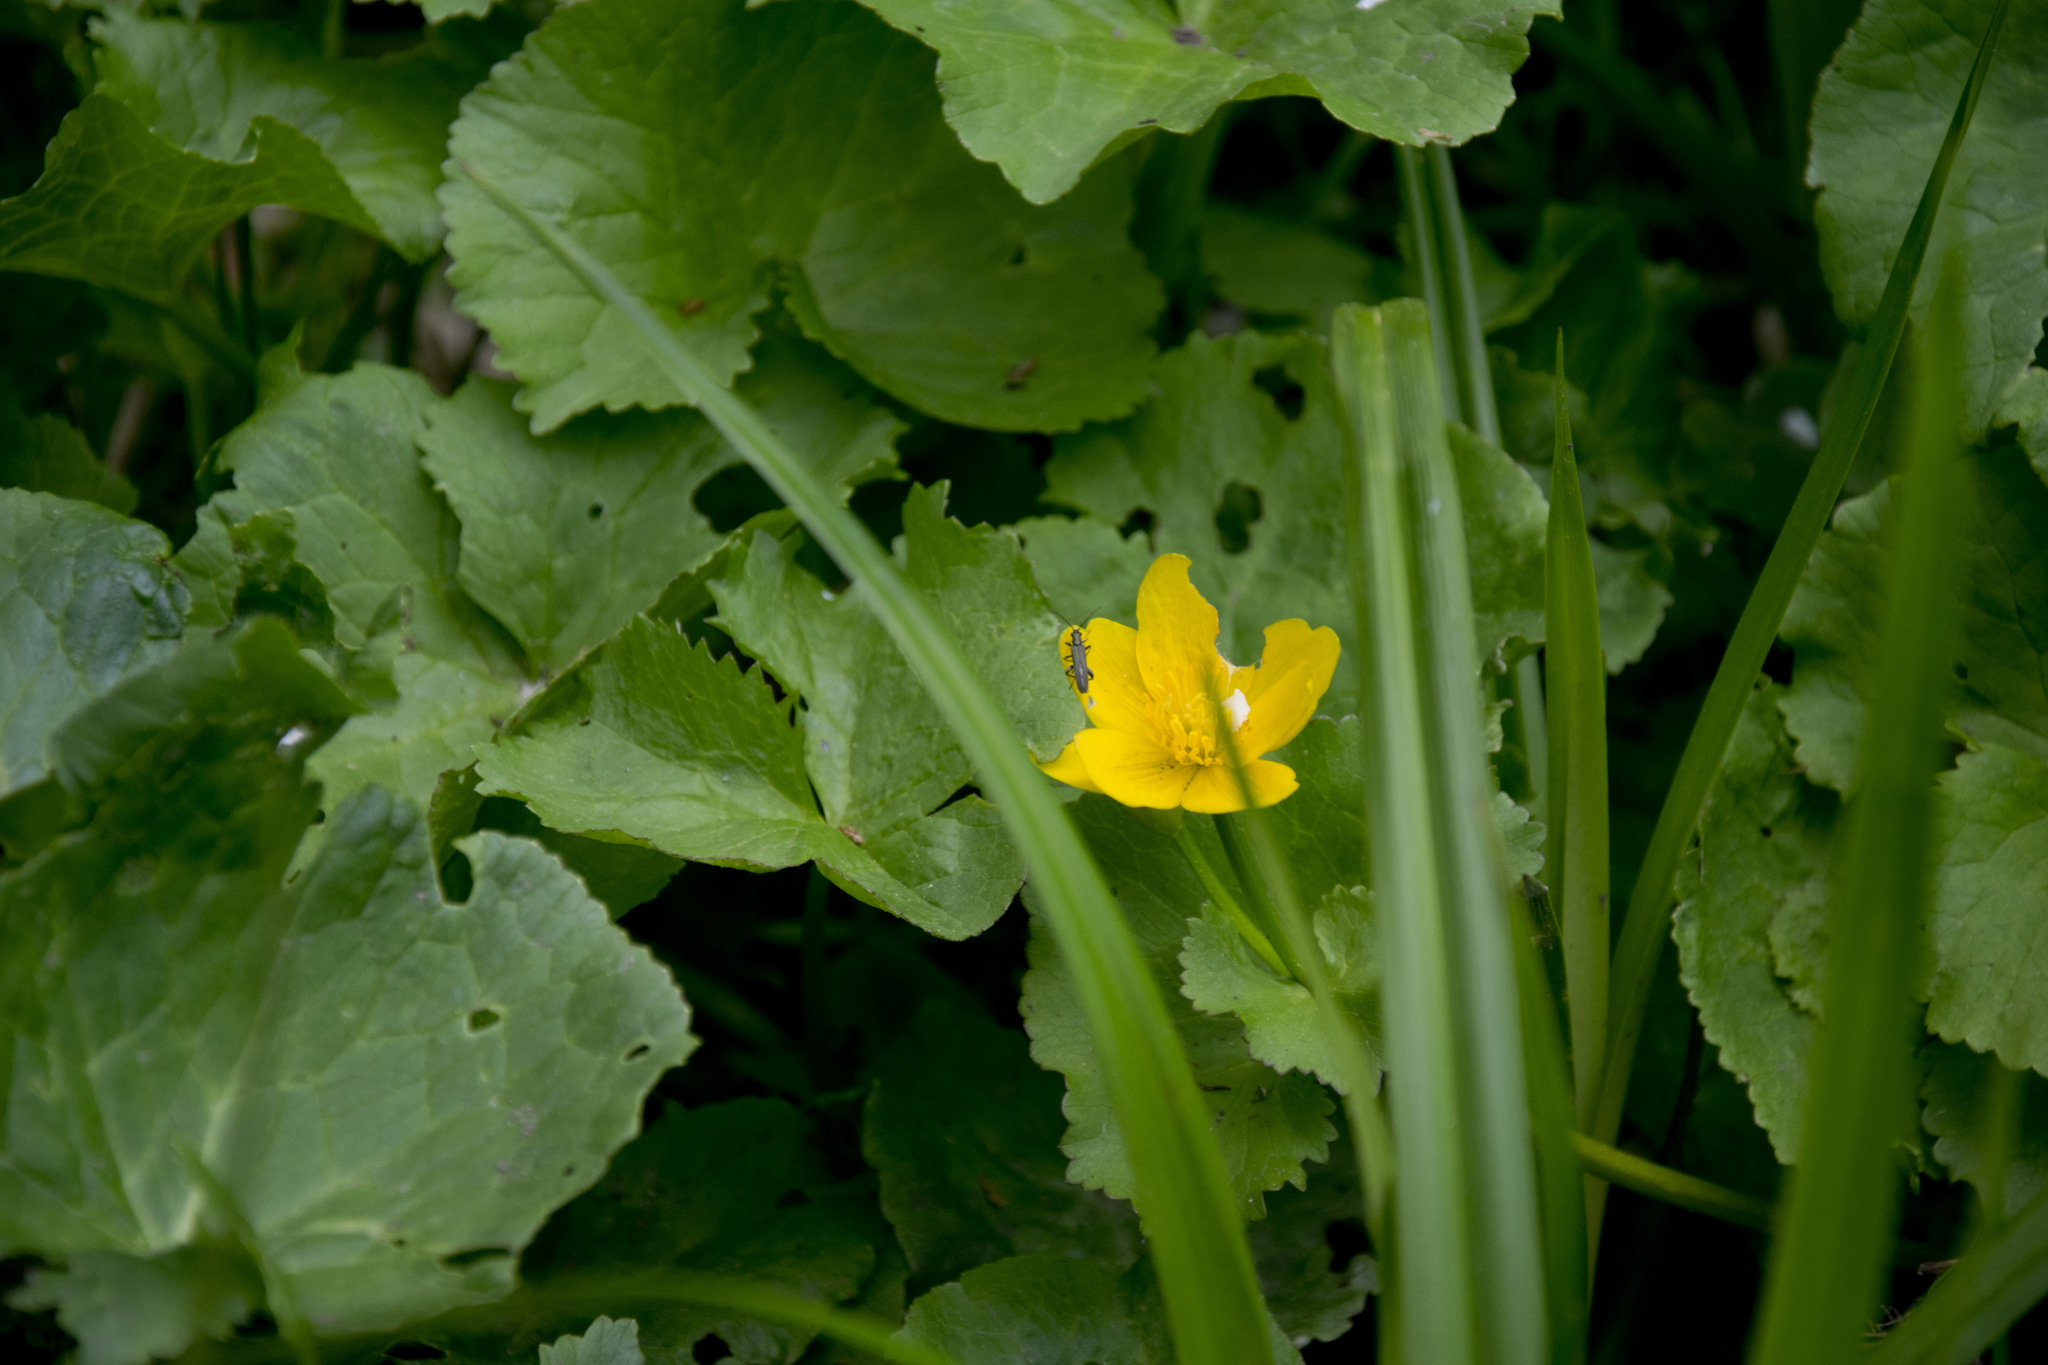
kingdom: Plantae
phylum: Tracheophyta
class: Magnoliopsida
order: Ranunculales
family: Ranunculaceae
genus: Caltha
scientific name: Caltha palustris
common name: Marsh marigold
